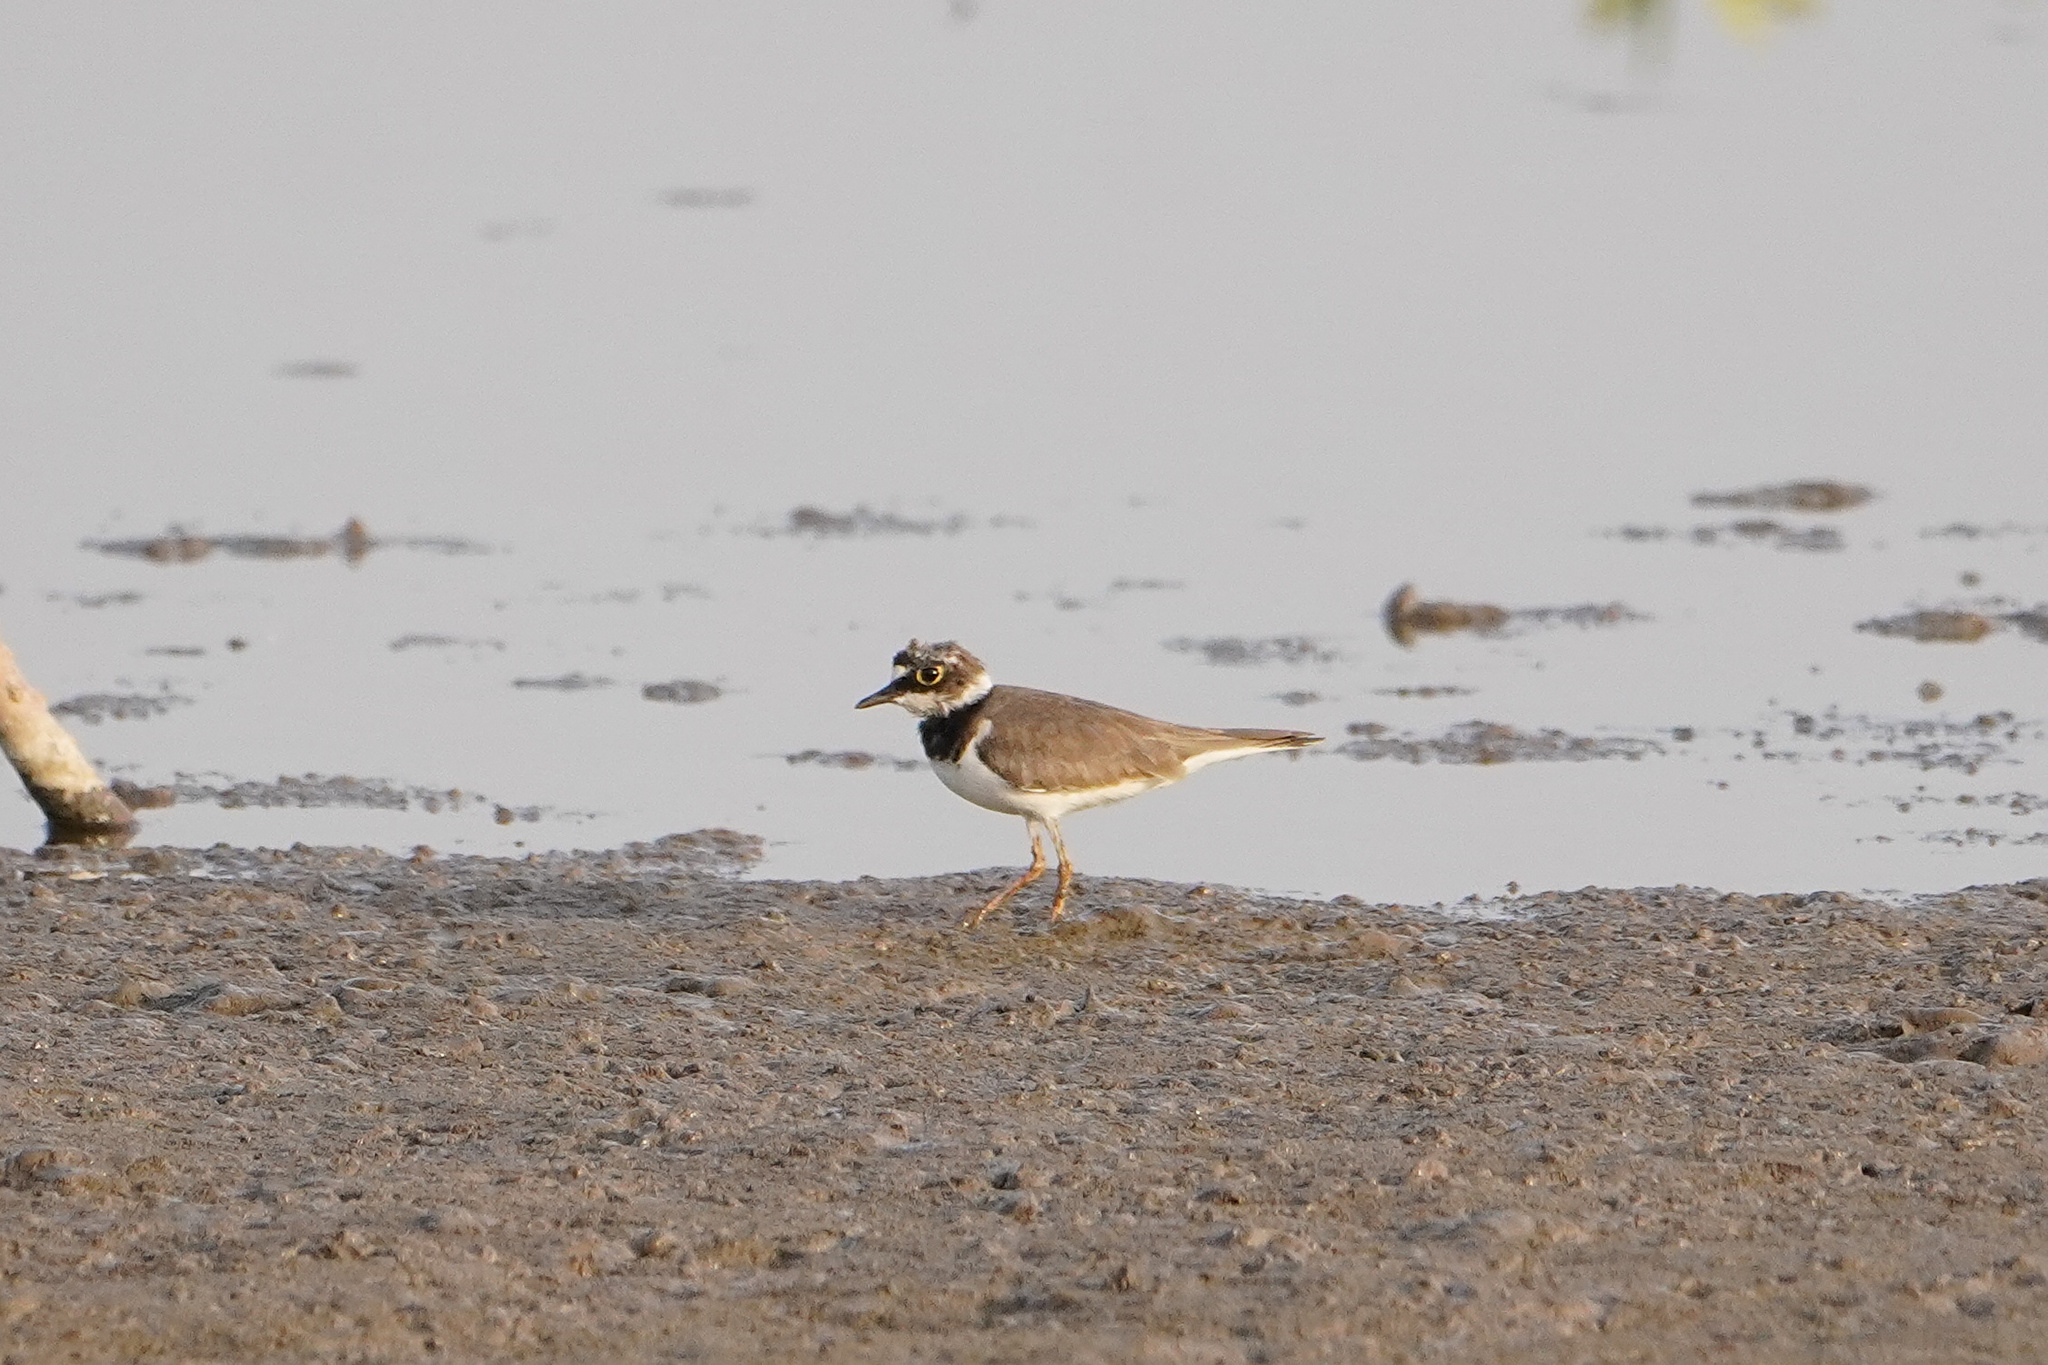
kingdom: Animalia
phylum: Chordata
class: Aves
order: Charadriiformes
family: Charadriidae
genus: Charadrius
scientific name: Charadrius dubius
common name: Little ringed plover
